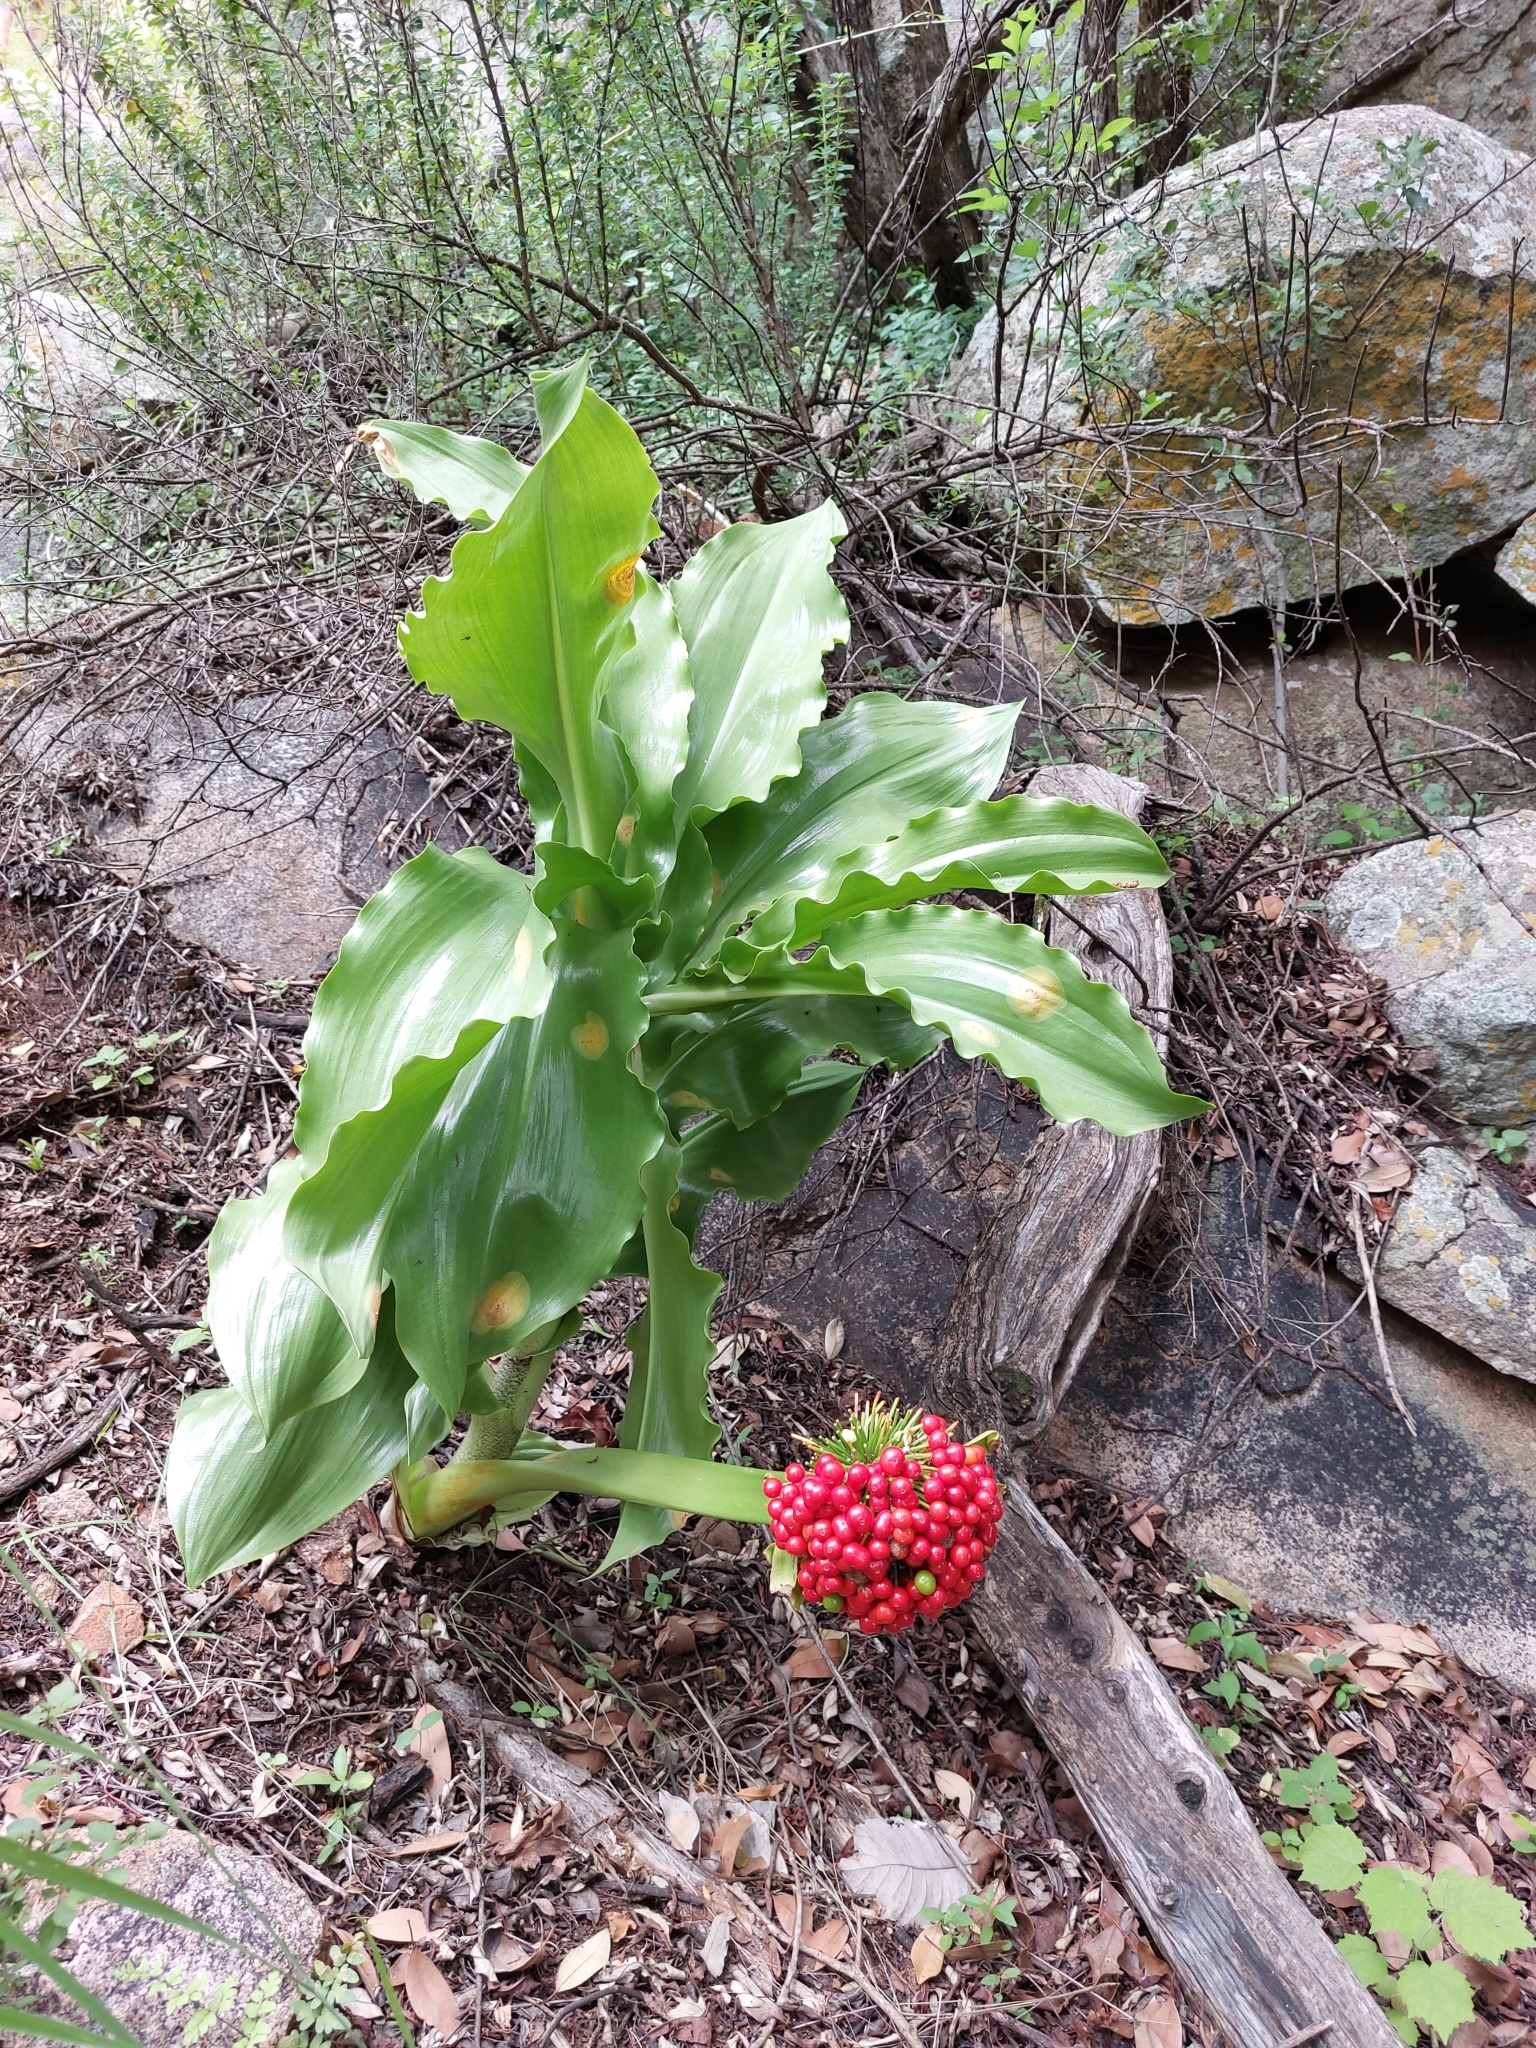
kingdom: Plantae
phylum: Tracheophyta
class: Liliopsida
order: Asparagales
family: Amaryllidaceae
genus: Scadoxus
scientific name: Scadoxus puniceus
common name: Royal-paintbrush
